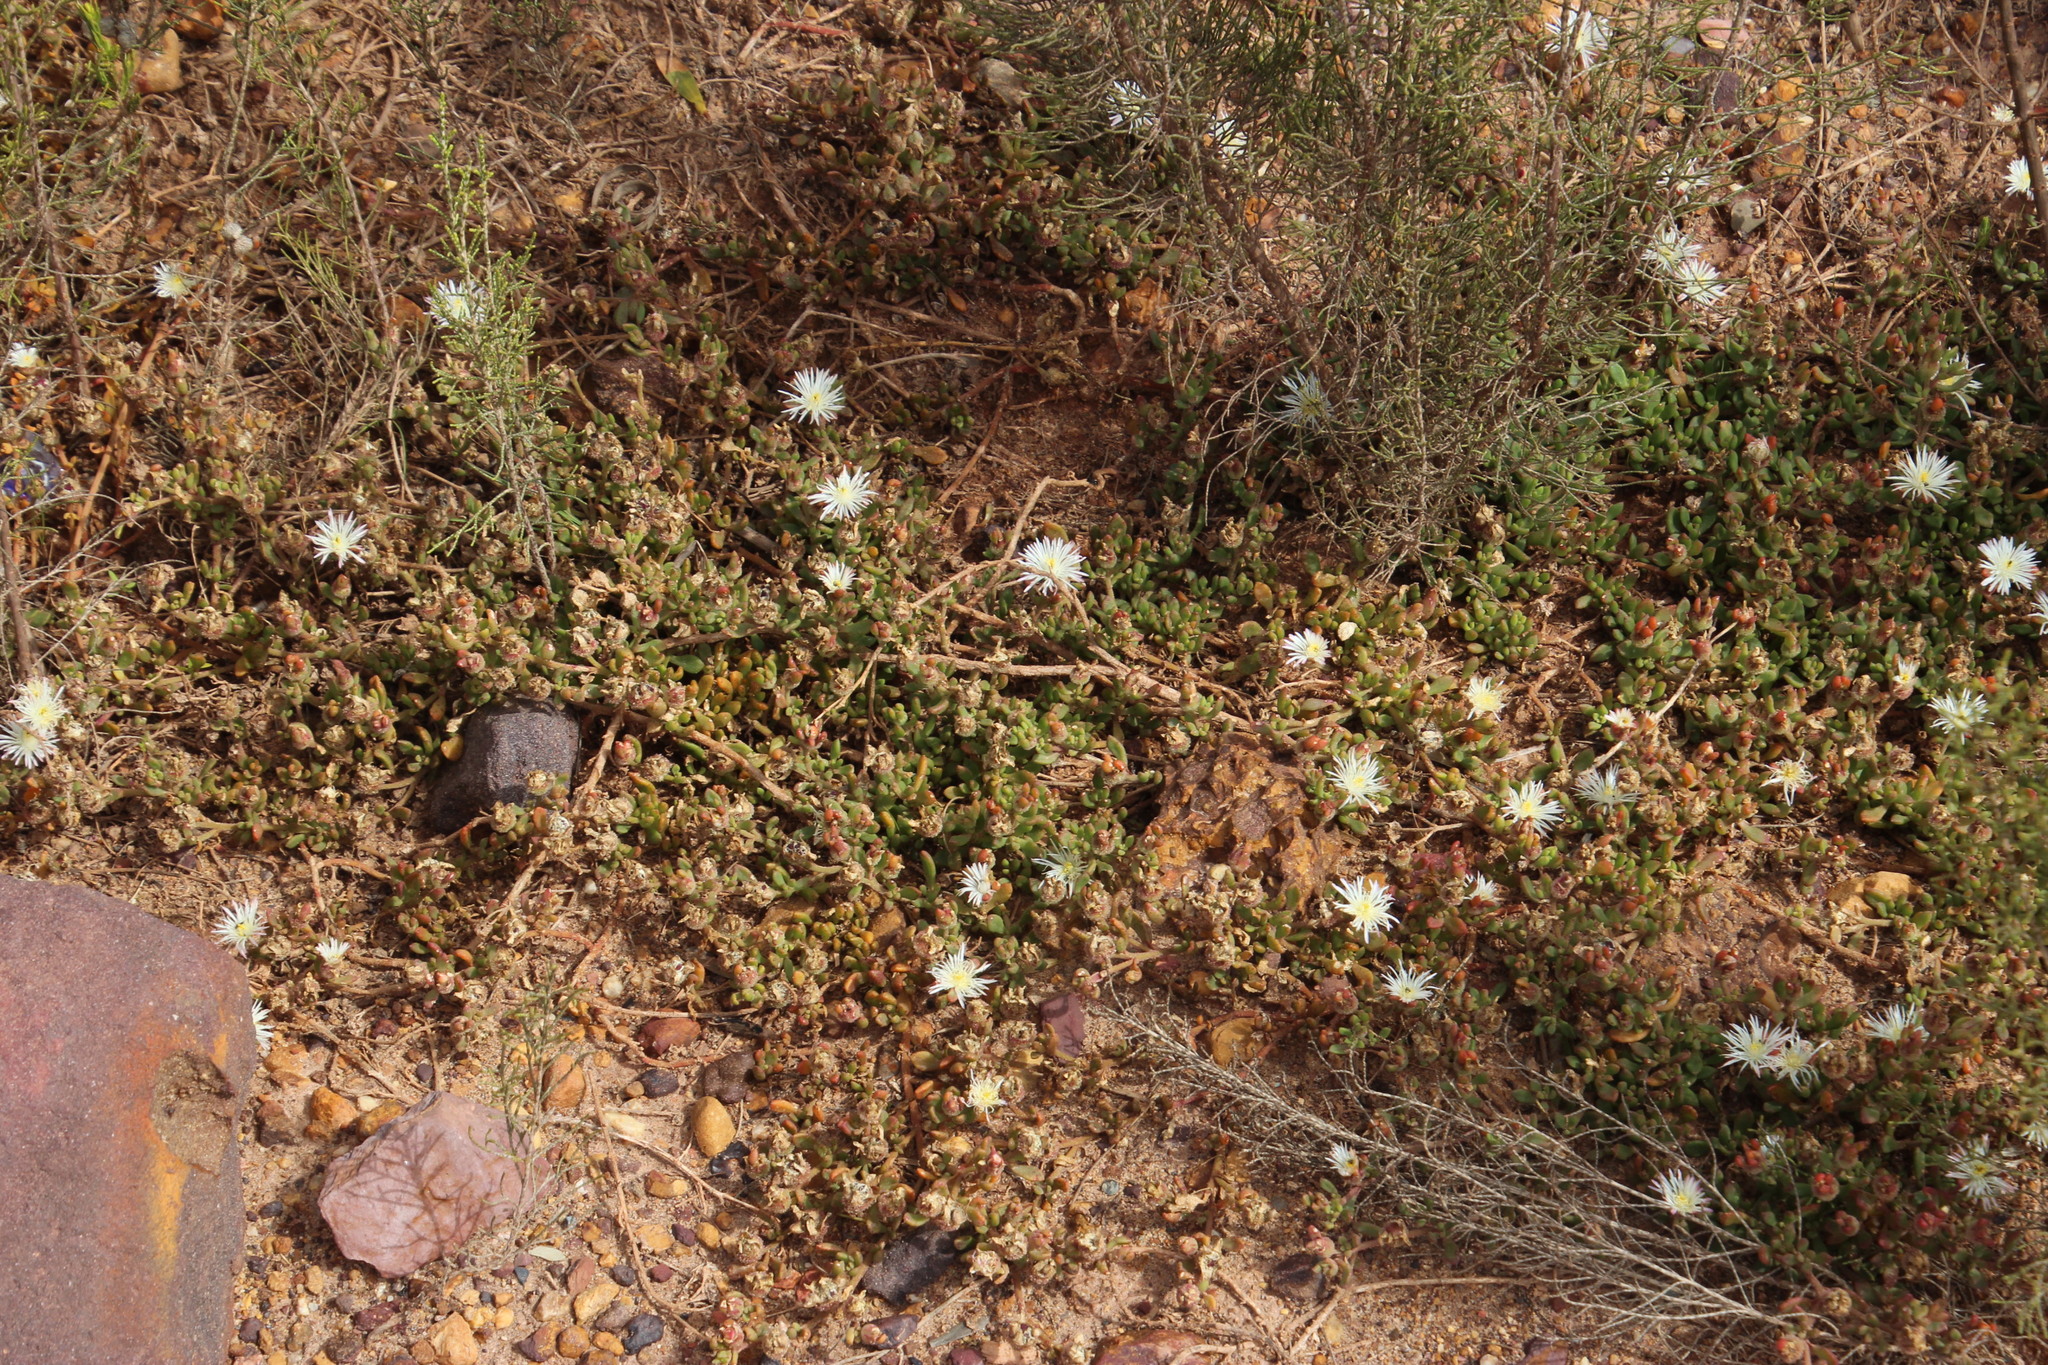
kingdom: Plantae
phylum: Tracheophyta
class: Magnoliopsida
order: Caryophyllales
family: Aizoaceae
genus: Mesembryanthemum
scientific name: Mesembryanthemum canaliculatum
